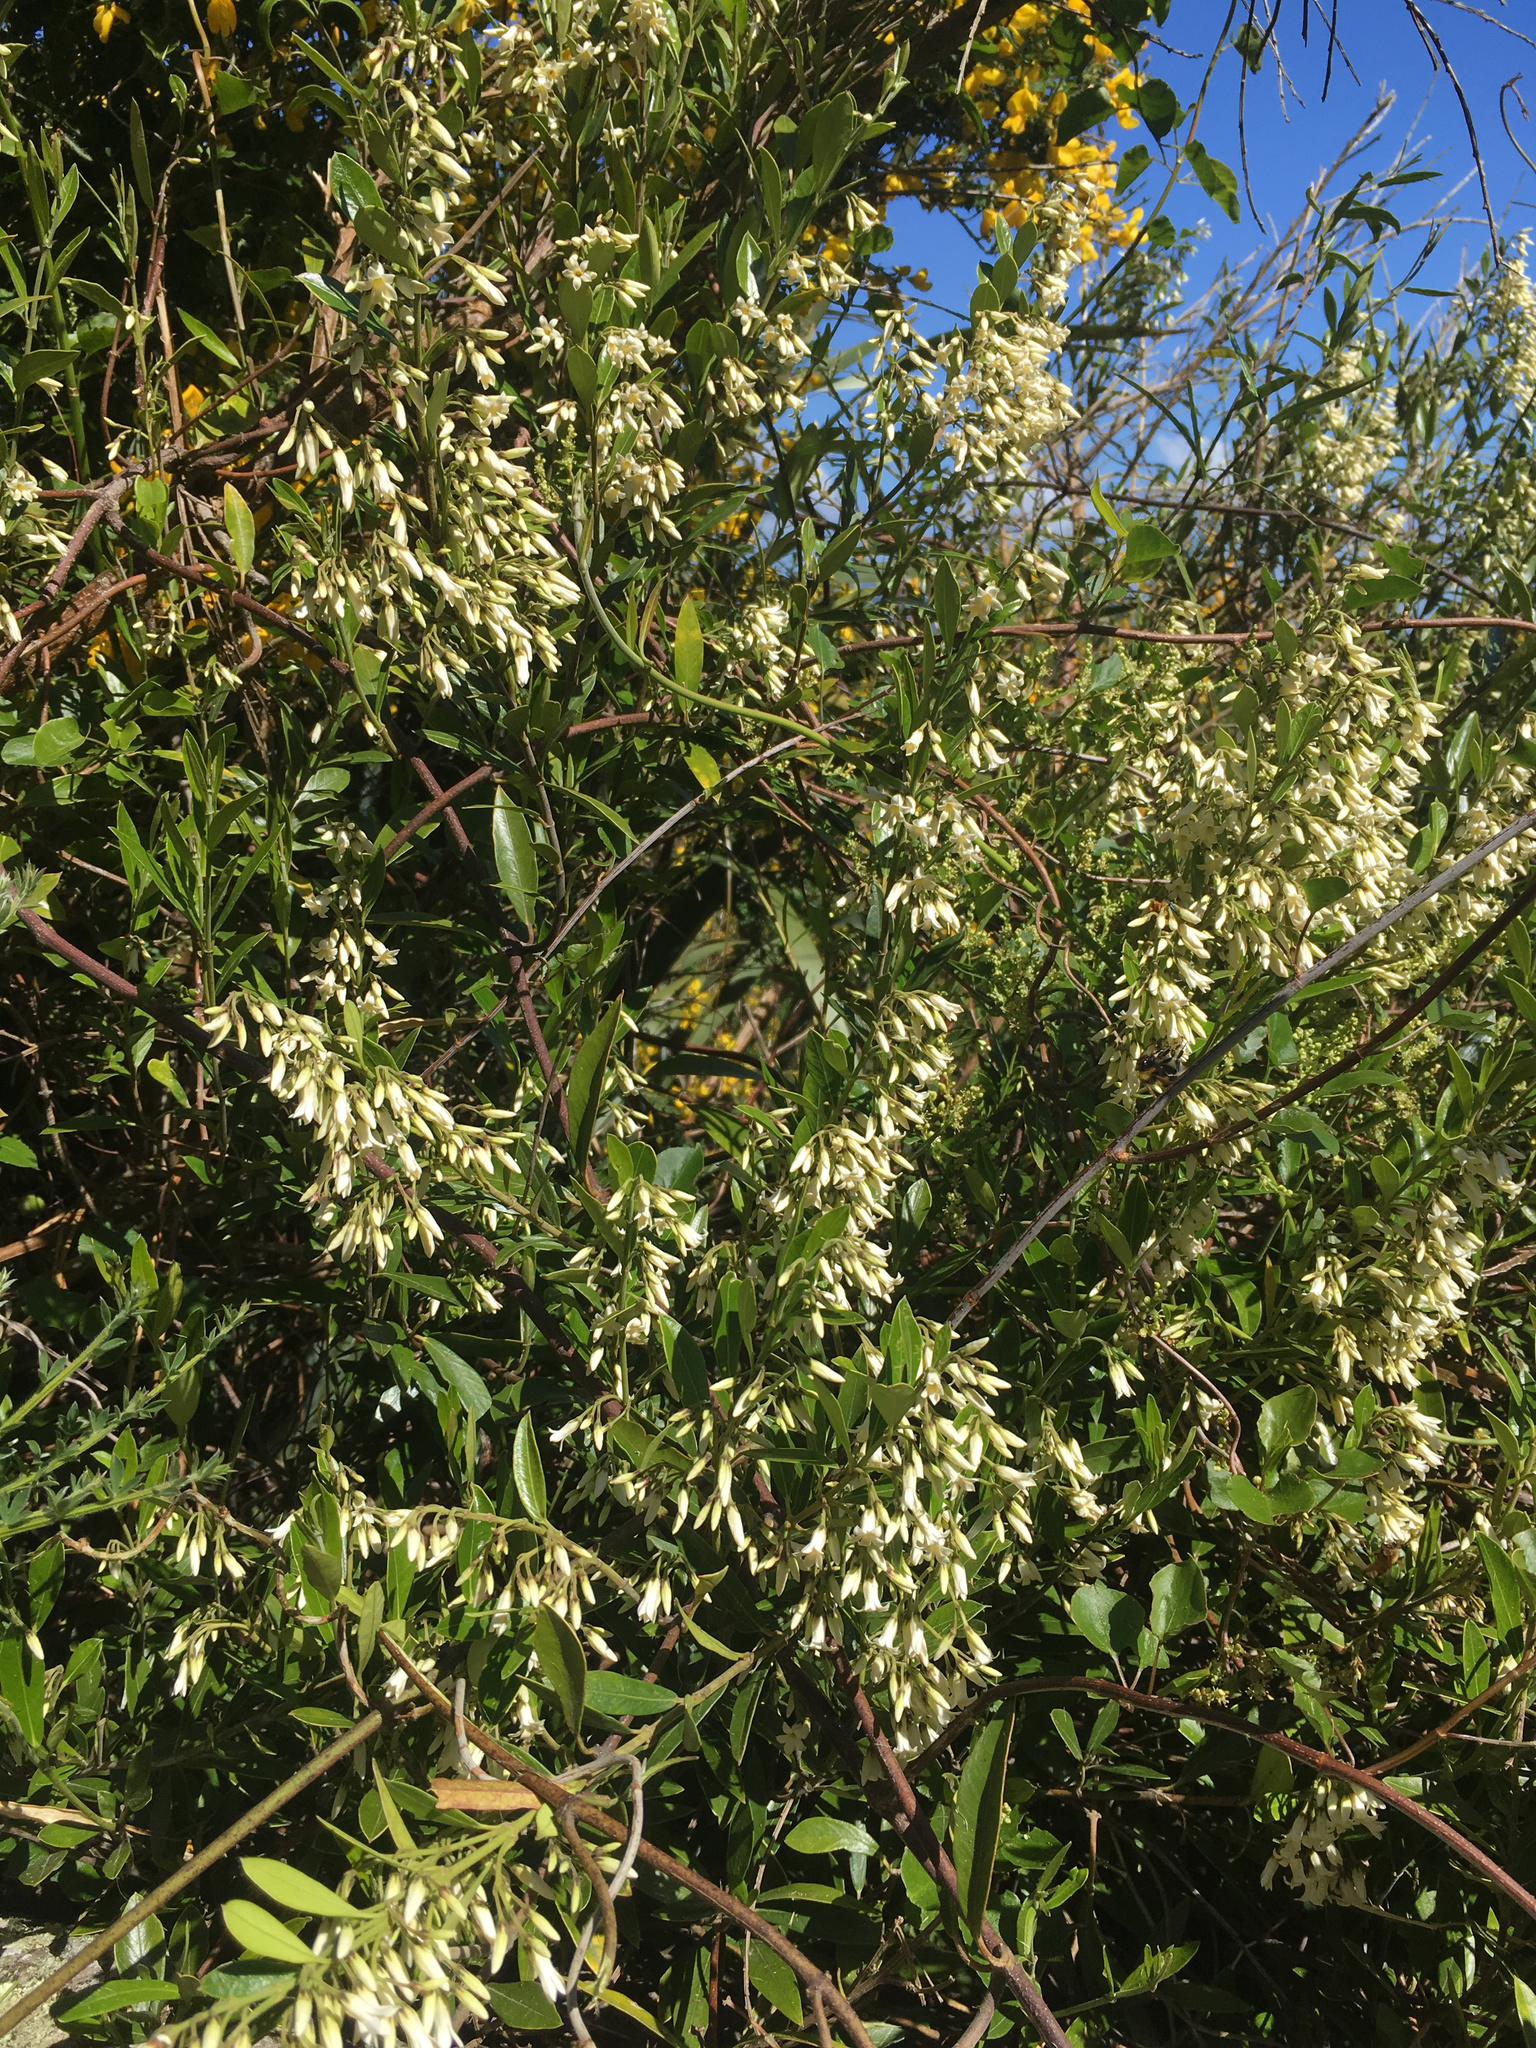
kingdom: Plantae
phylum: Tracheophyta
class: Magnoliopsida
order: Gentianales
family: Apocynaceae
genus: Parsonsia
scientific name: Parsonsia heterophylla
